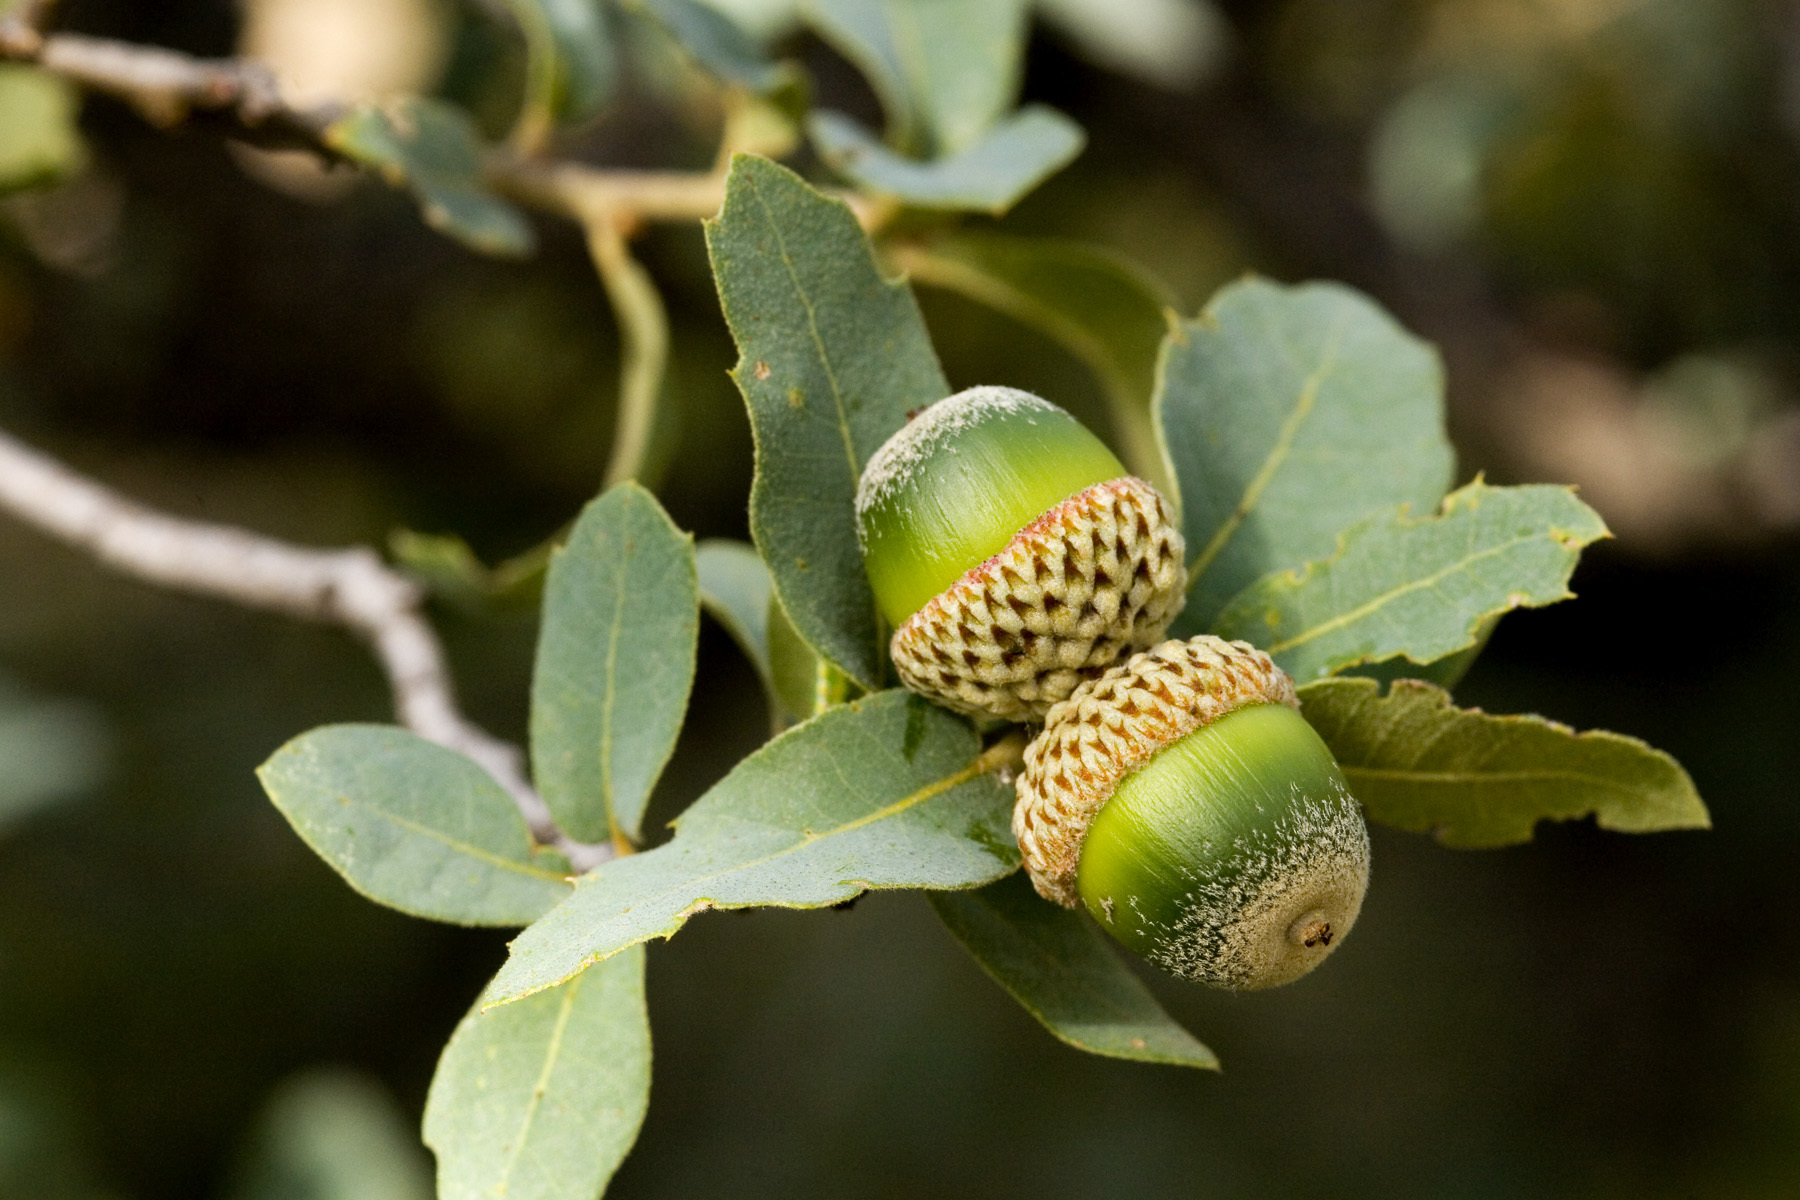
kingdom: Plantae
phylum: Tracheophyta
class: Magnoliopsida
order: Fagales
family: Fagaceae
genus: Quercus
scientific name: Quercus grisea
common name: Gray oak
